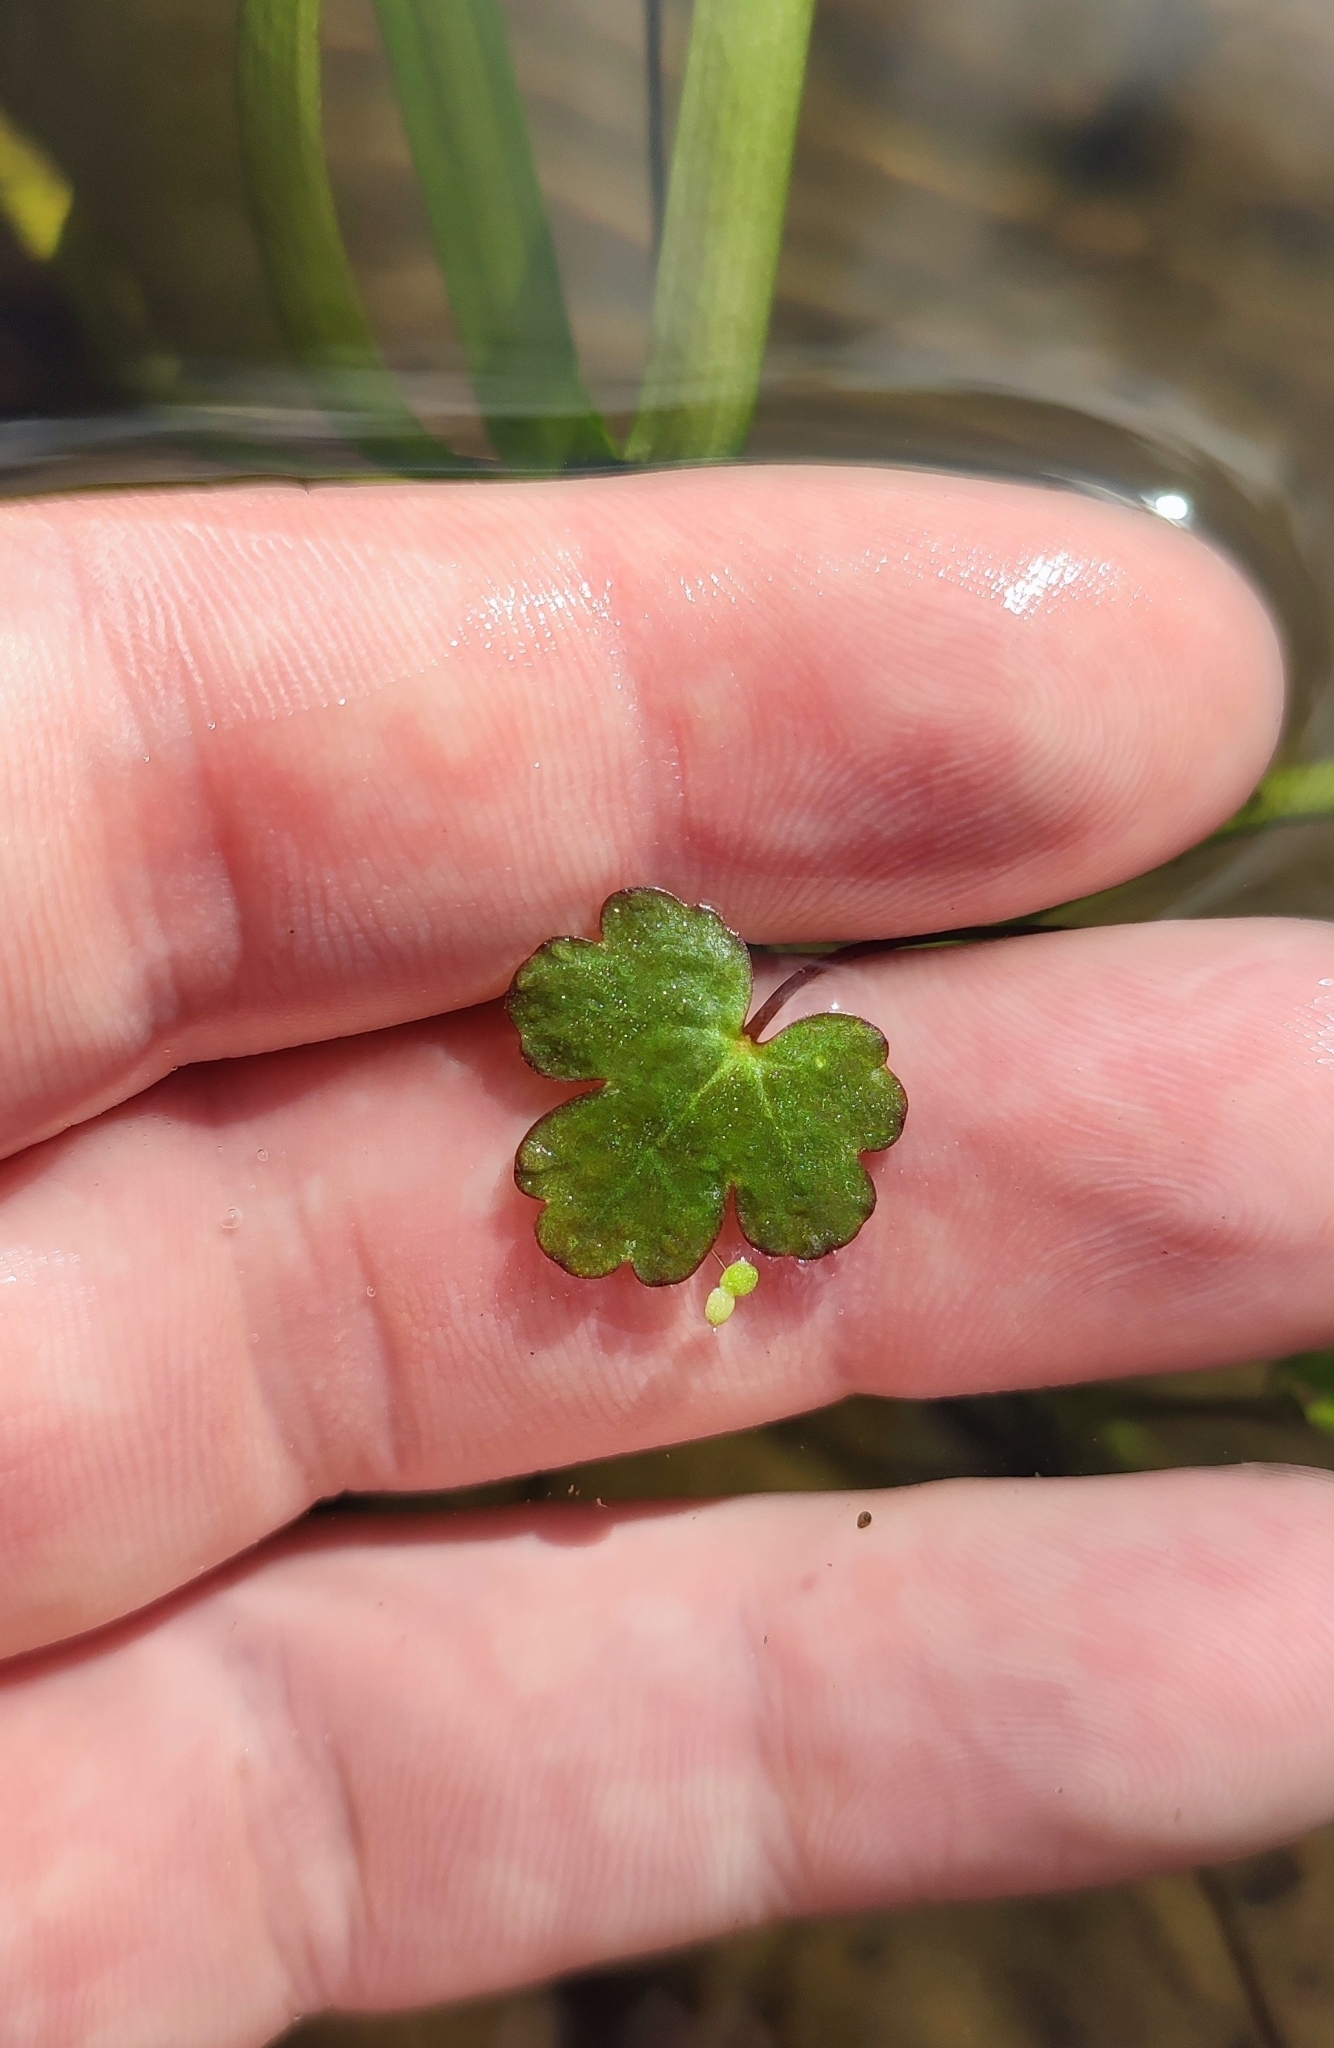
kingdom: Plantae
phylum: Tracheophyta
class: Magnoliopsida
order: Ranunculales
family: Ranunculaceae
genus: Ranunculus
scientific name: Ranunculus sceleratus
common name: Celery-leaved buttercup
